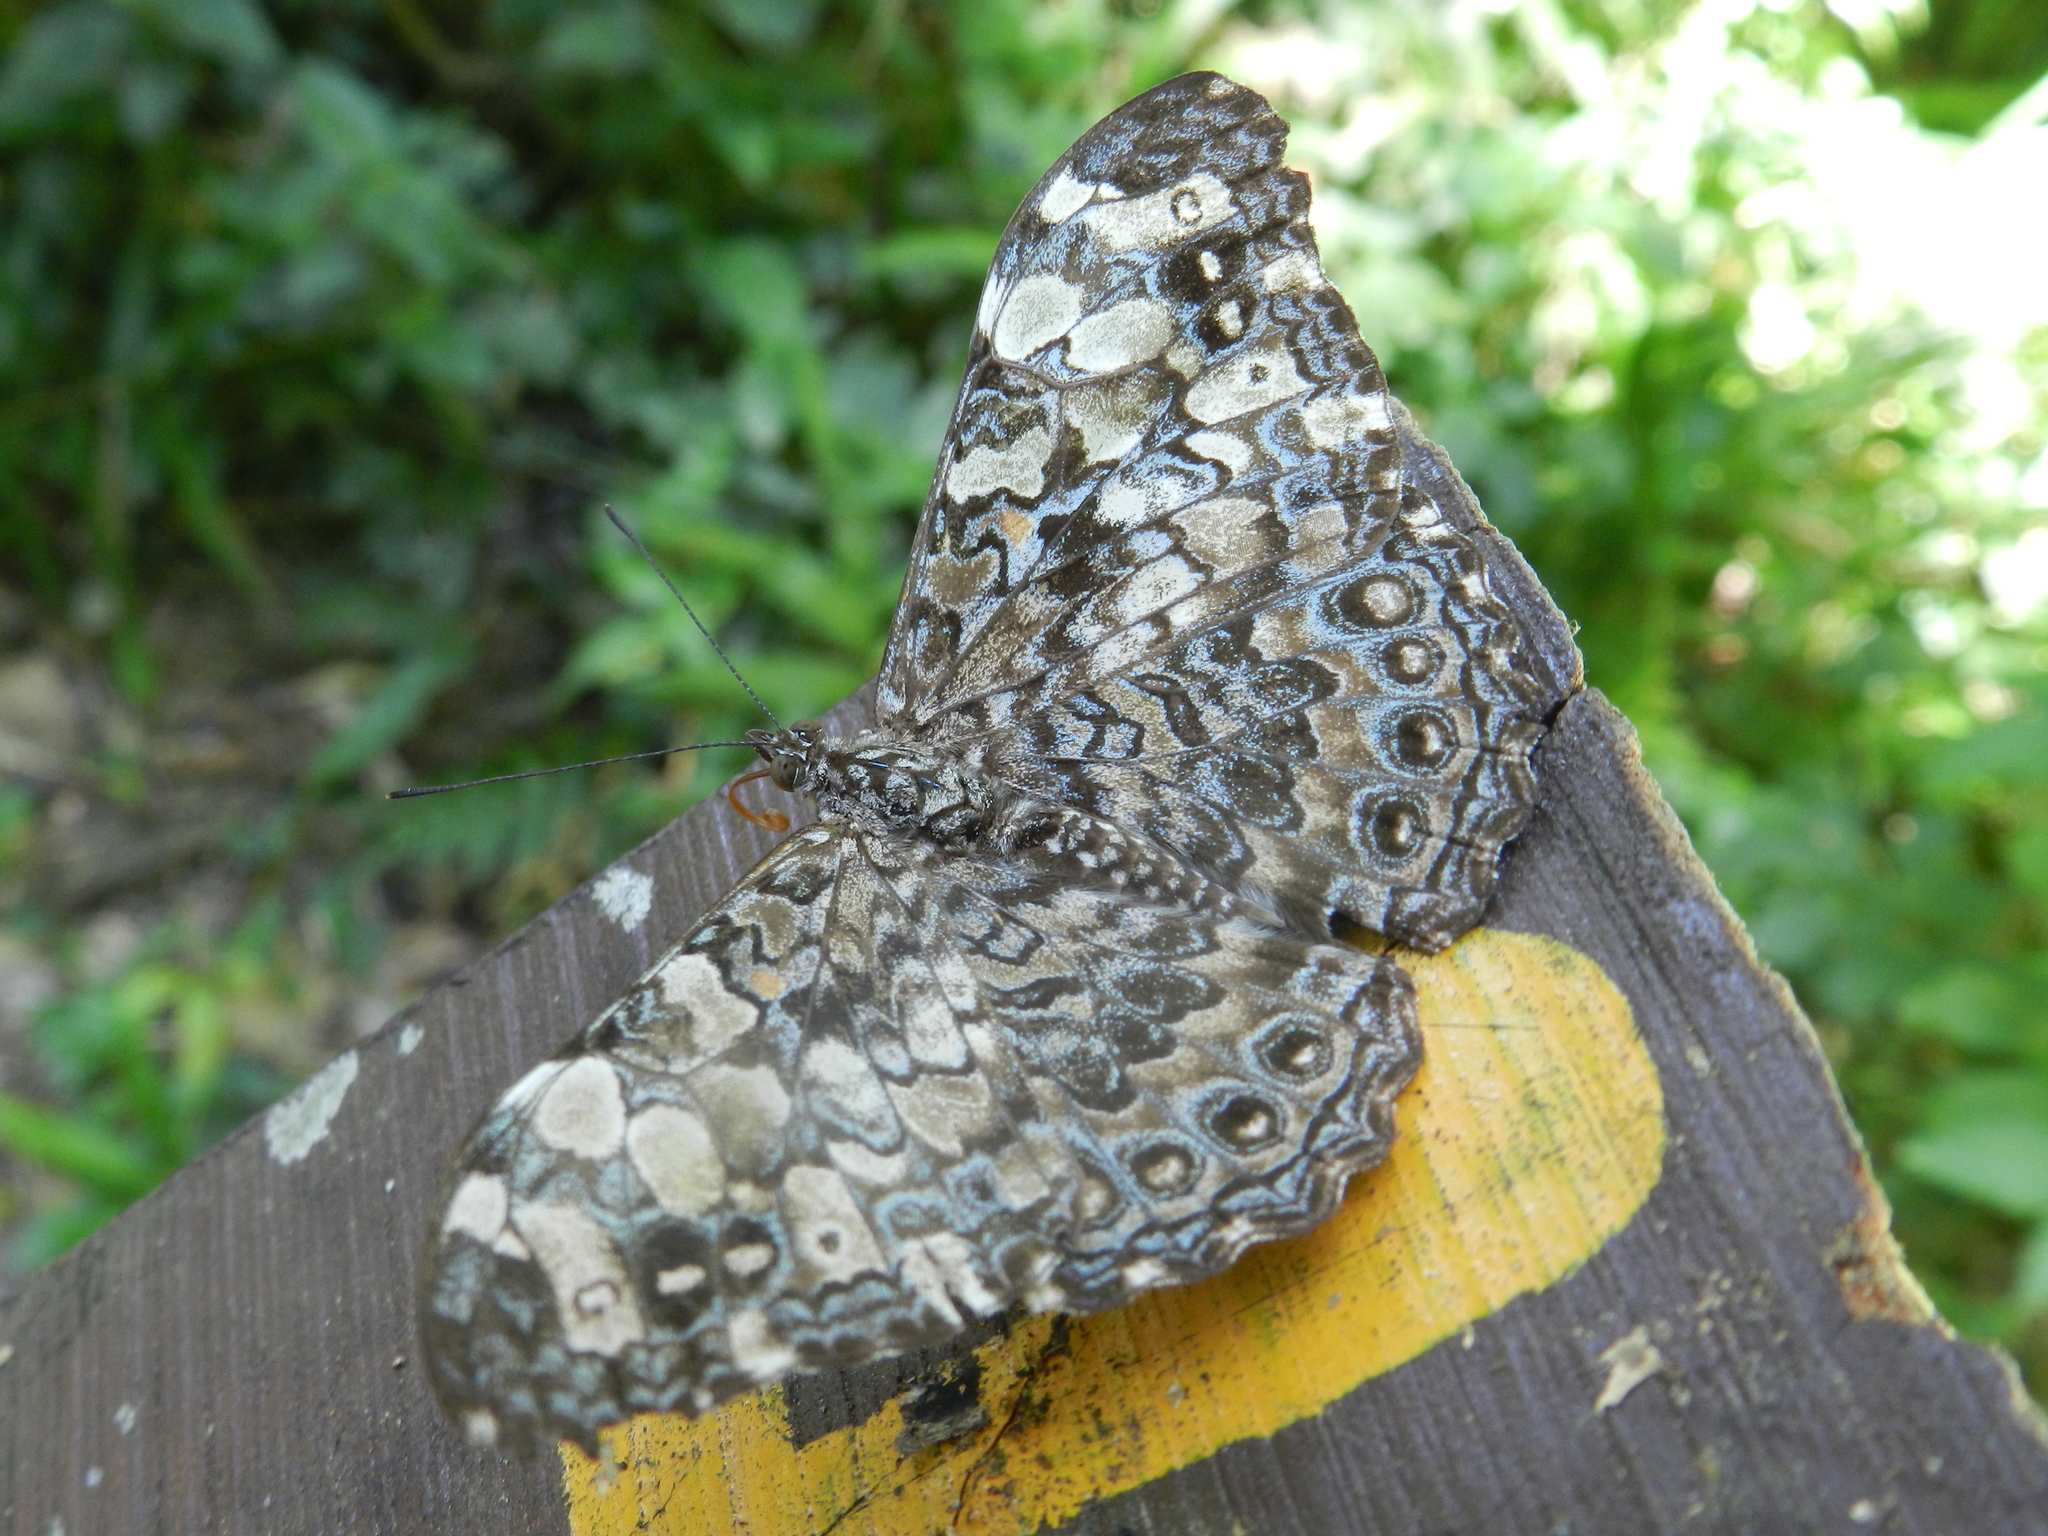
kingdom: Animalia
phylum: Arthropoda
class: Insecta
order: Lepidoptera
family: Nymphalidae
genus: Hamadryas
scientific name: Hamadryas epinome
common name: Epinome cracker
